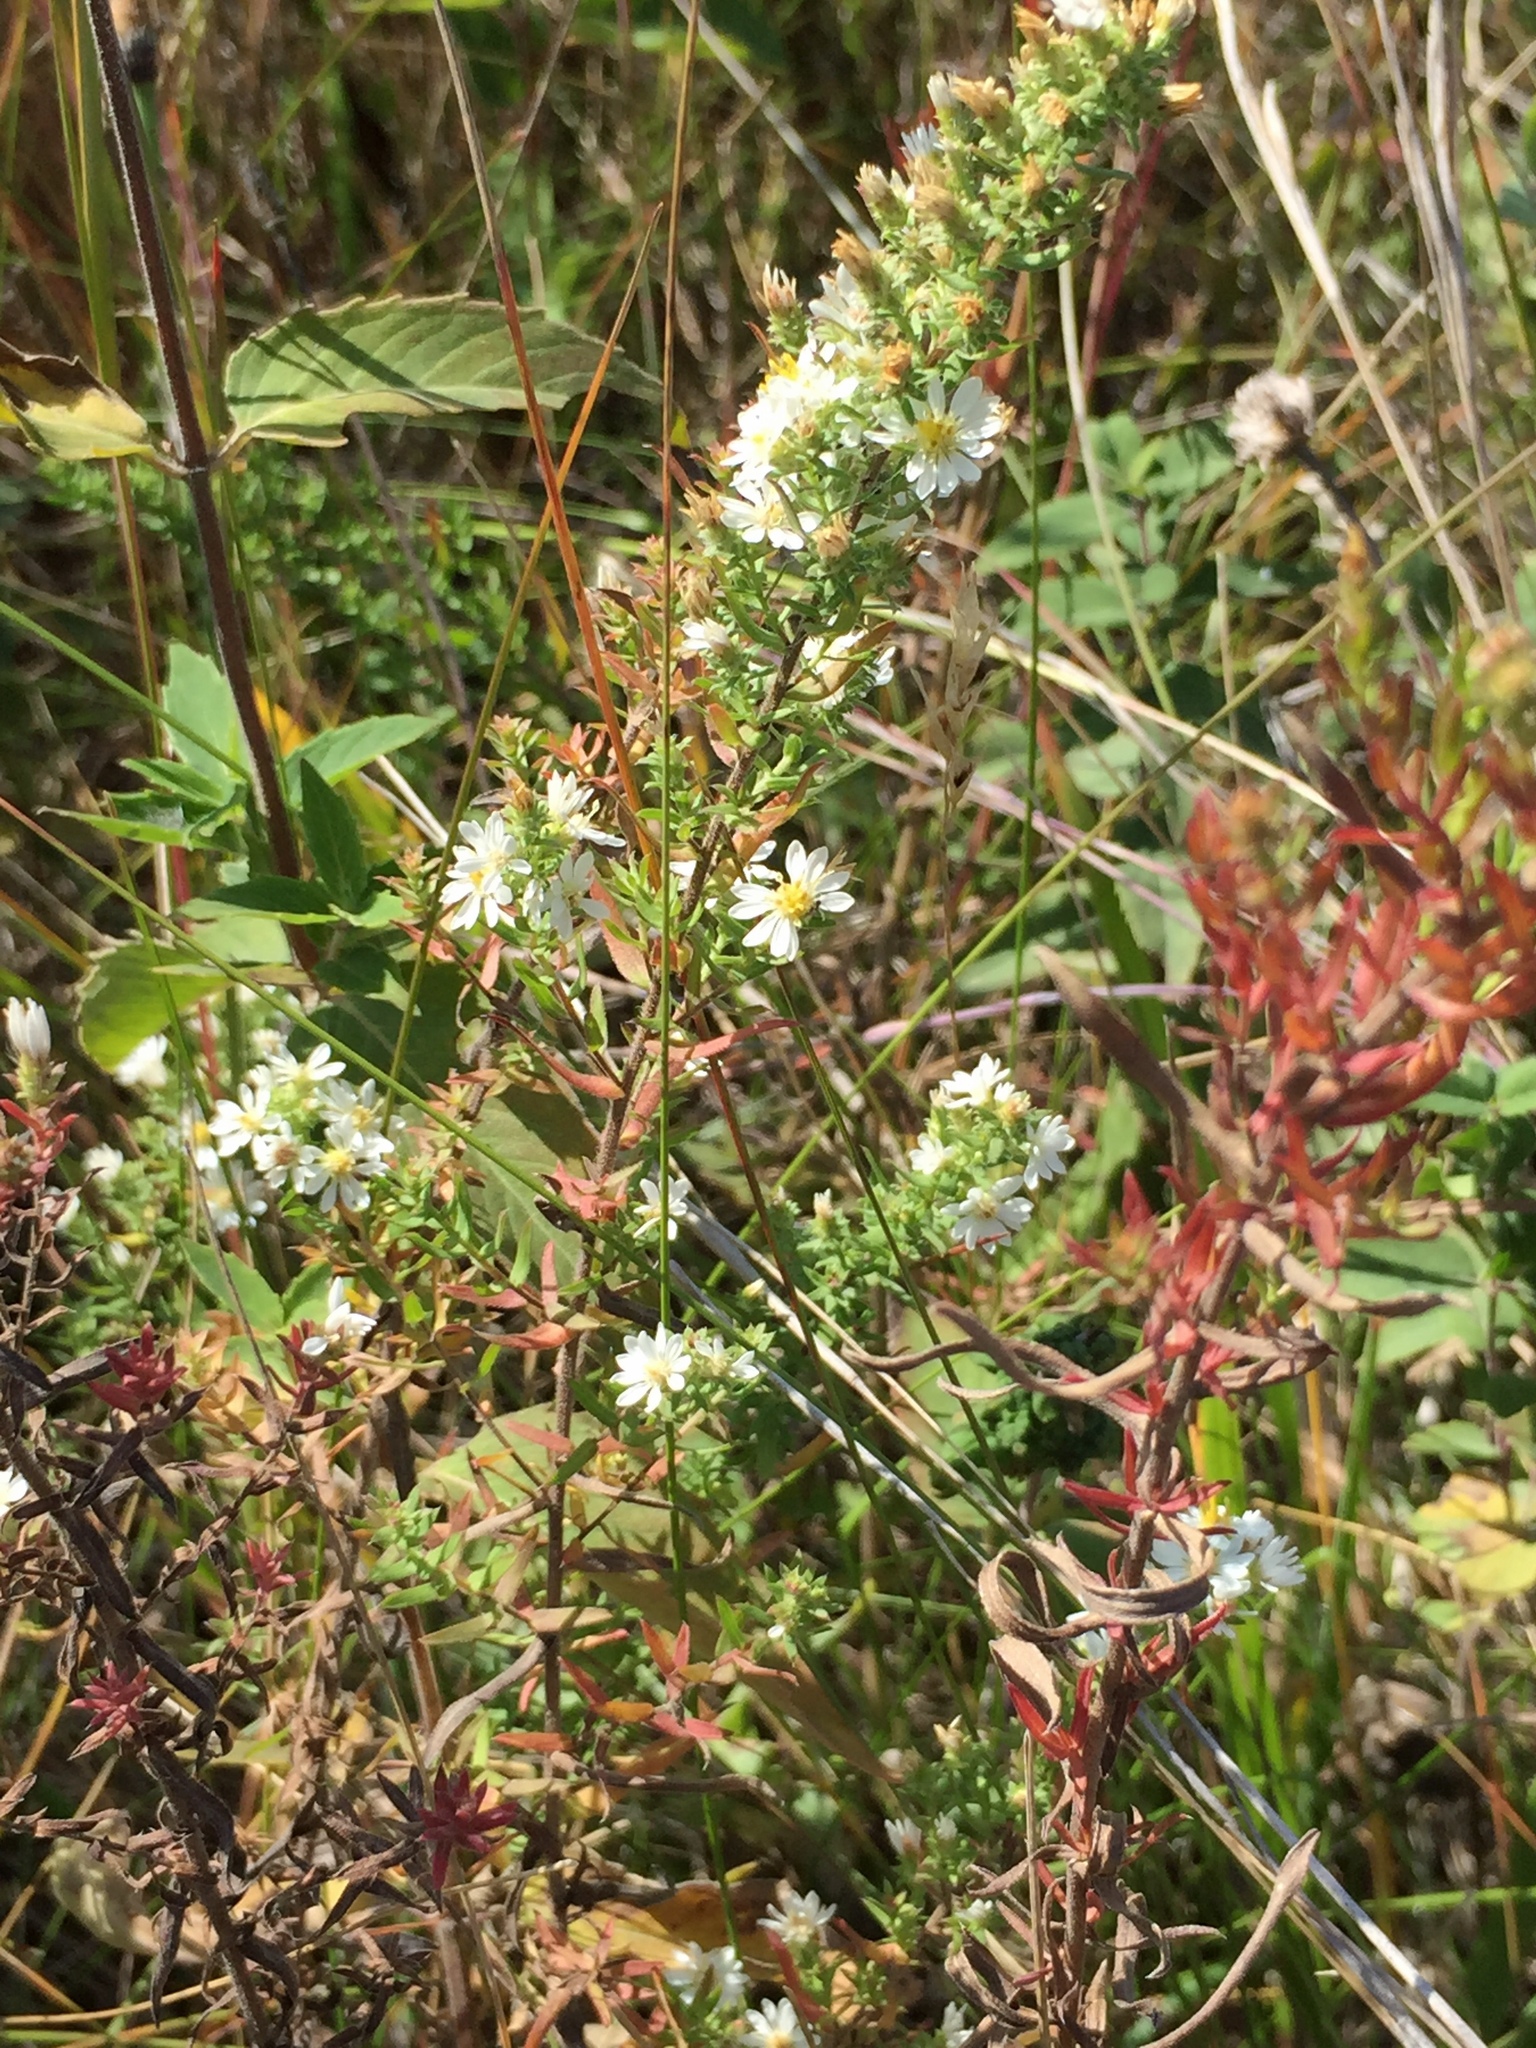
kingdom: Plantae
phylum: Tracheophyta
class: Magnoliopsida
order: Asterales
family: Asteraceae
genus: Symphyotrichum
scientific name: Symphyotrichum ericoides
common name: Heath aster
